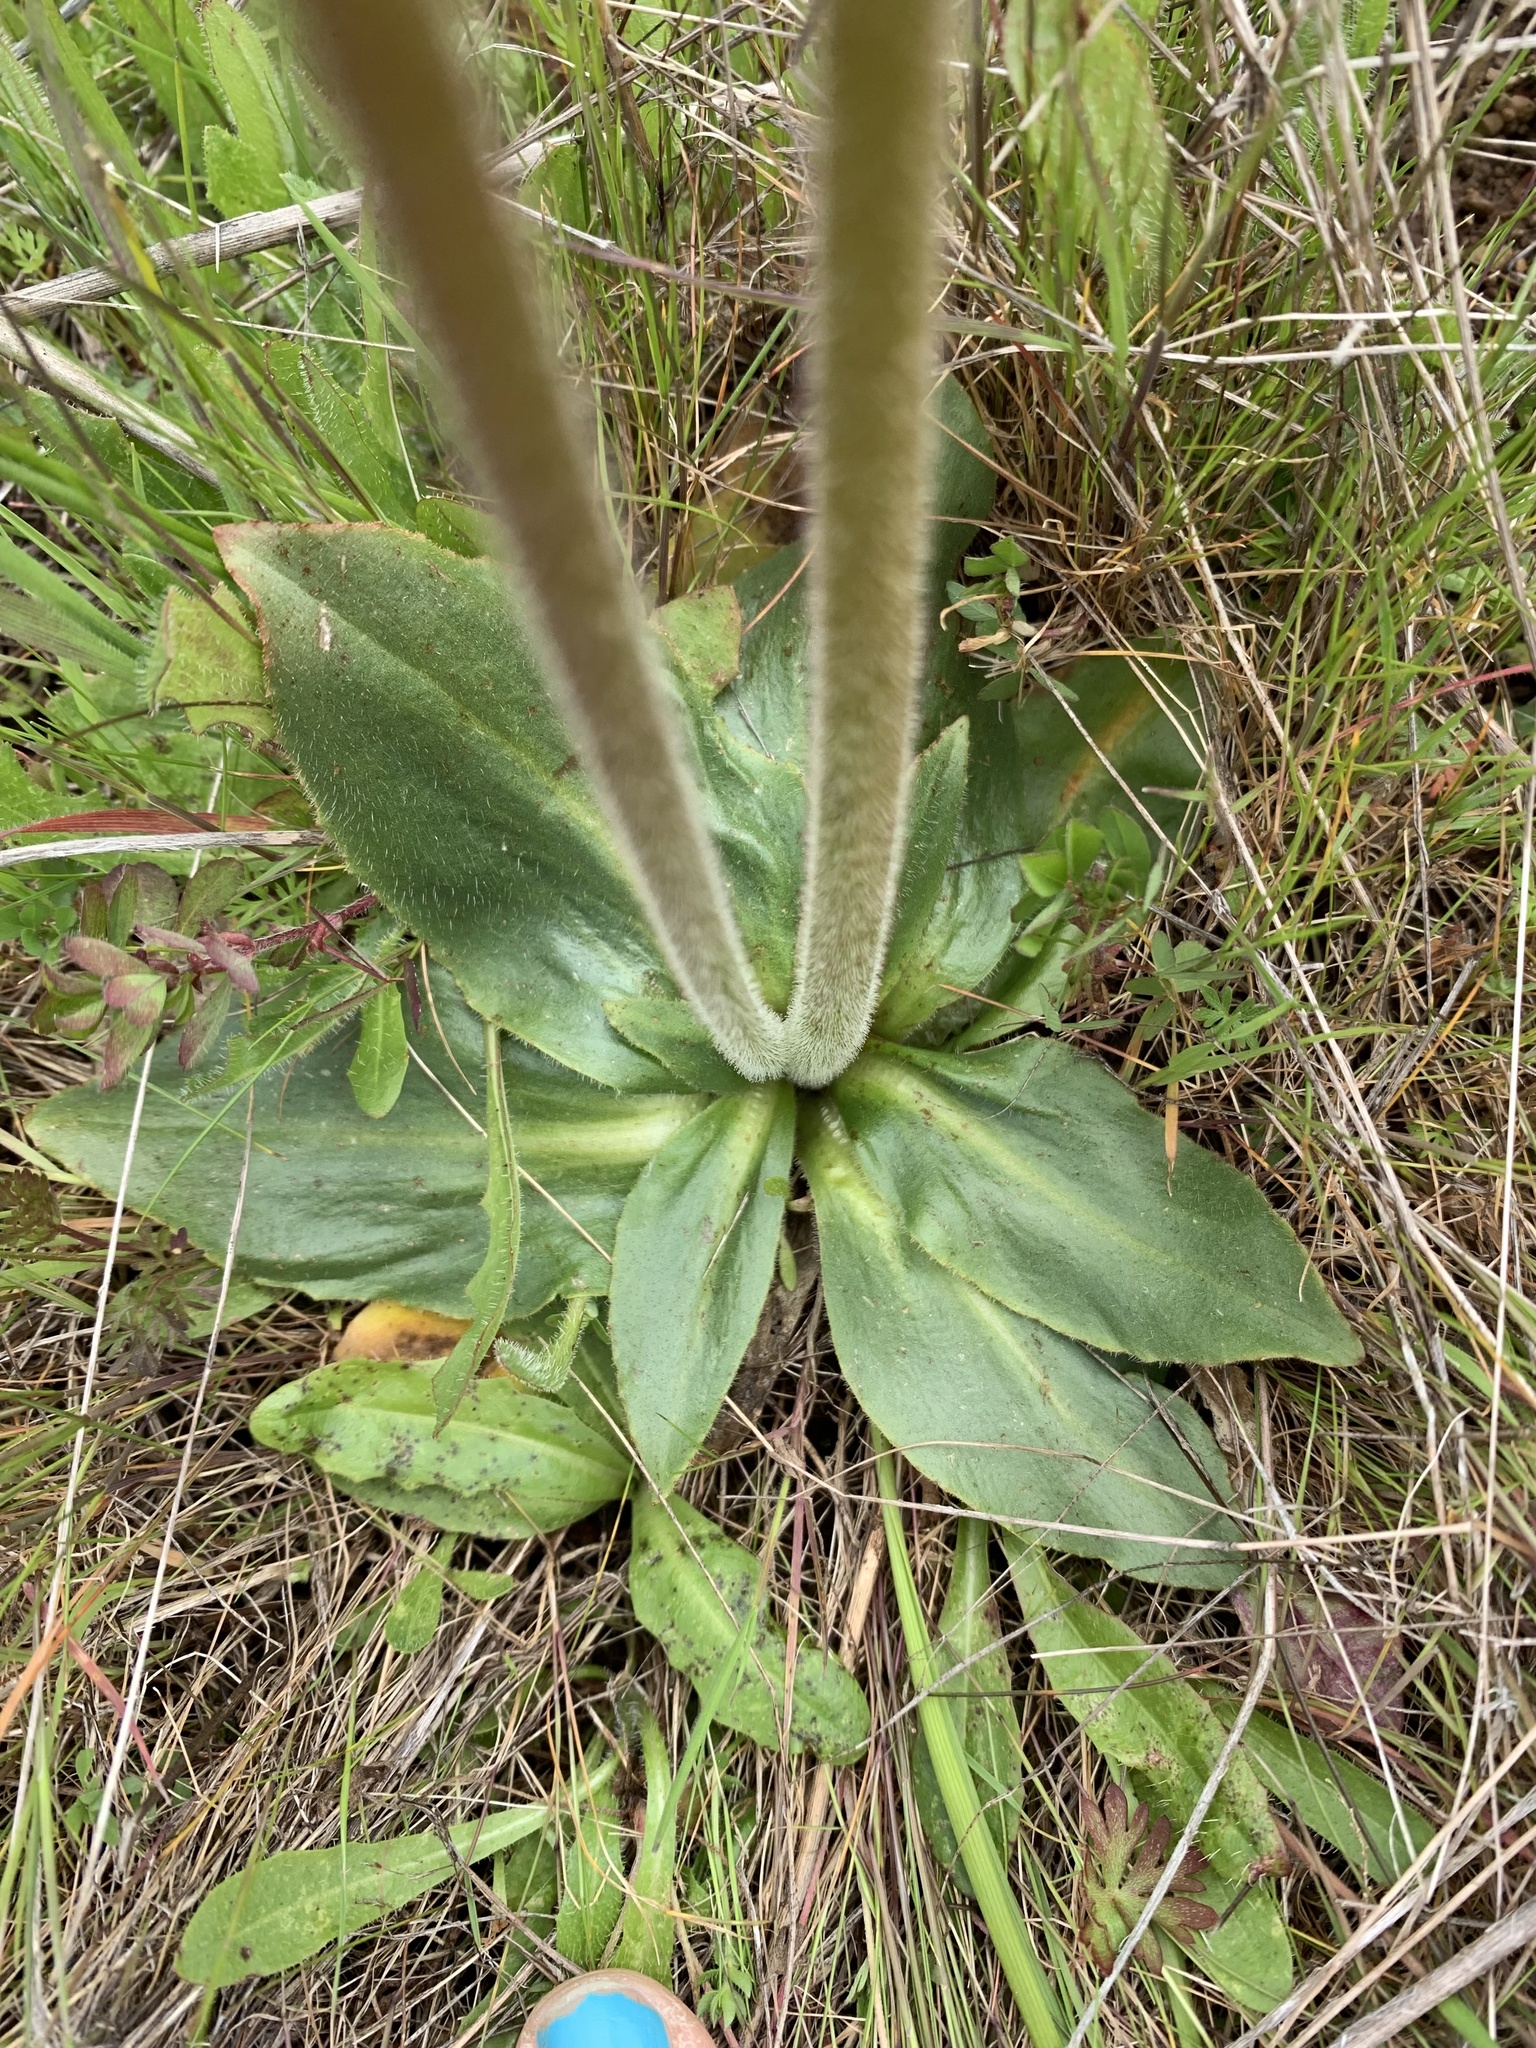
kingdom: Plantae
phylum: Tracheophyta
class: Magnoliopsida
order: Saxifragales
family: Saxifragaceae
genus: Micranthes
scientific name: Micranthes oregana
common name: Bog saxifrage
